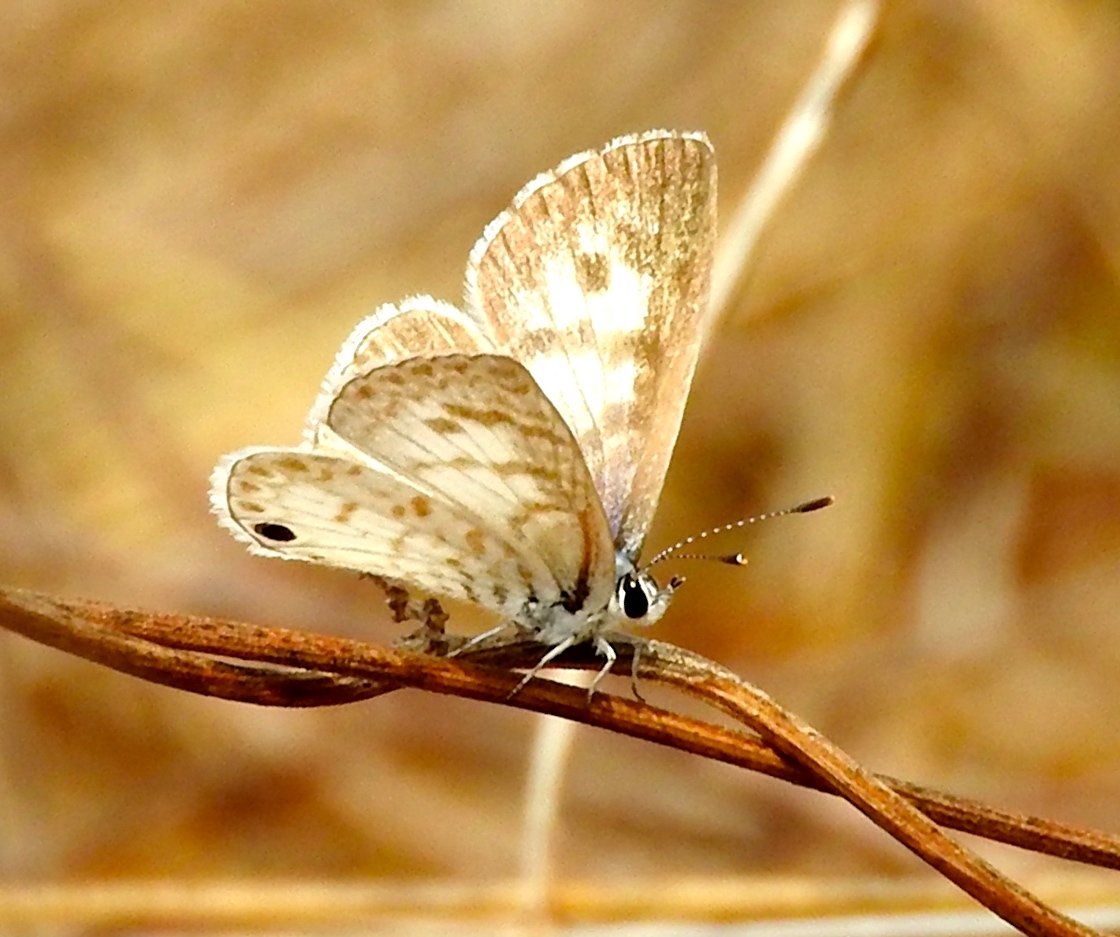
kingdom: Animalia
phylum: Arthropoda
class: Insecta
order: Lepidoptera
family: Lycaenidae
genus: Leptotes
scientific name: Leptotes theonus
